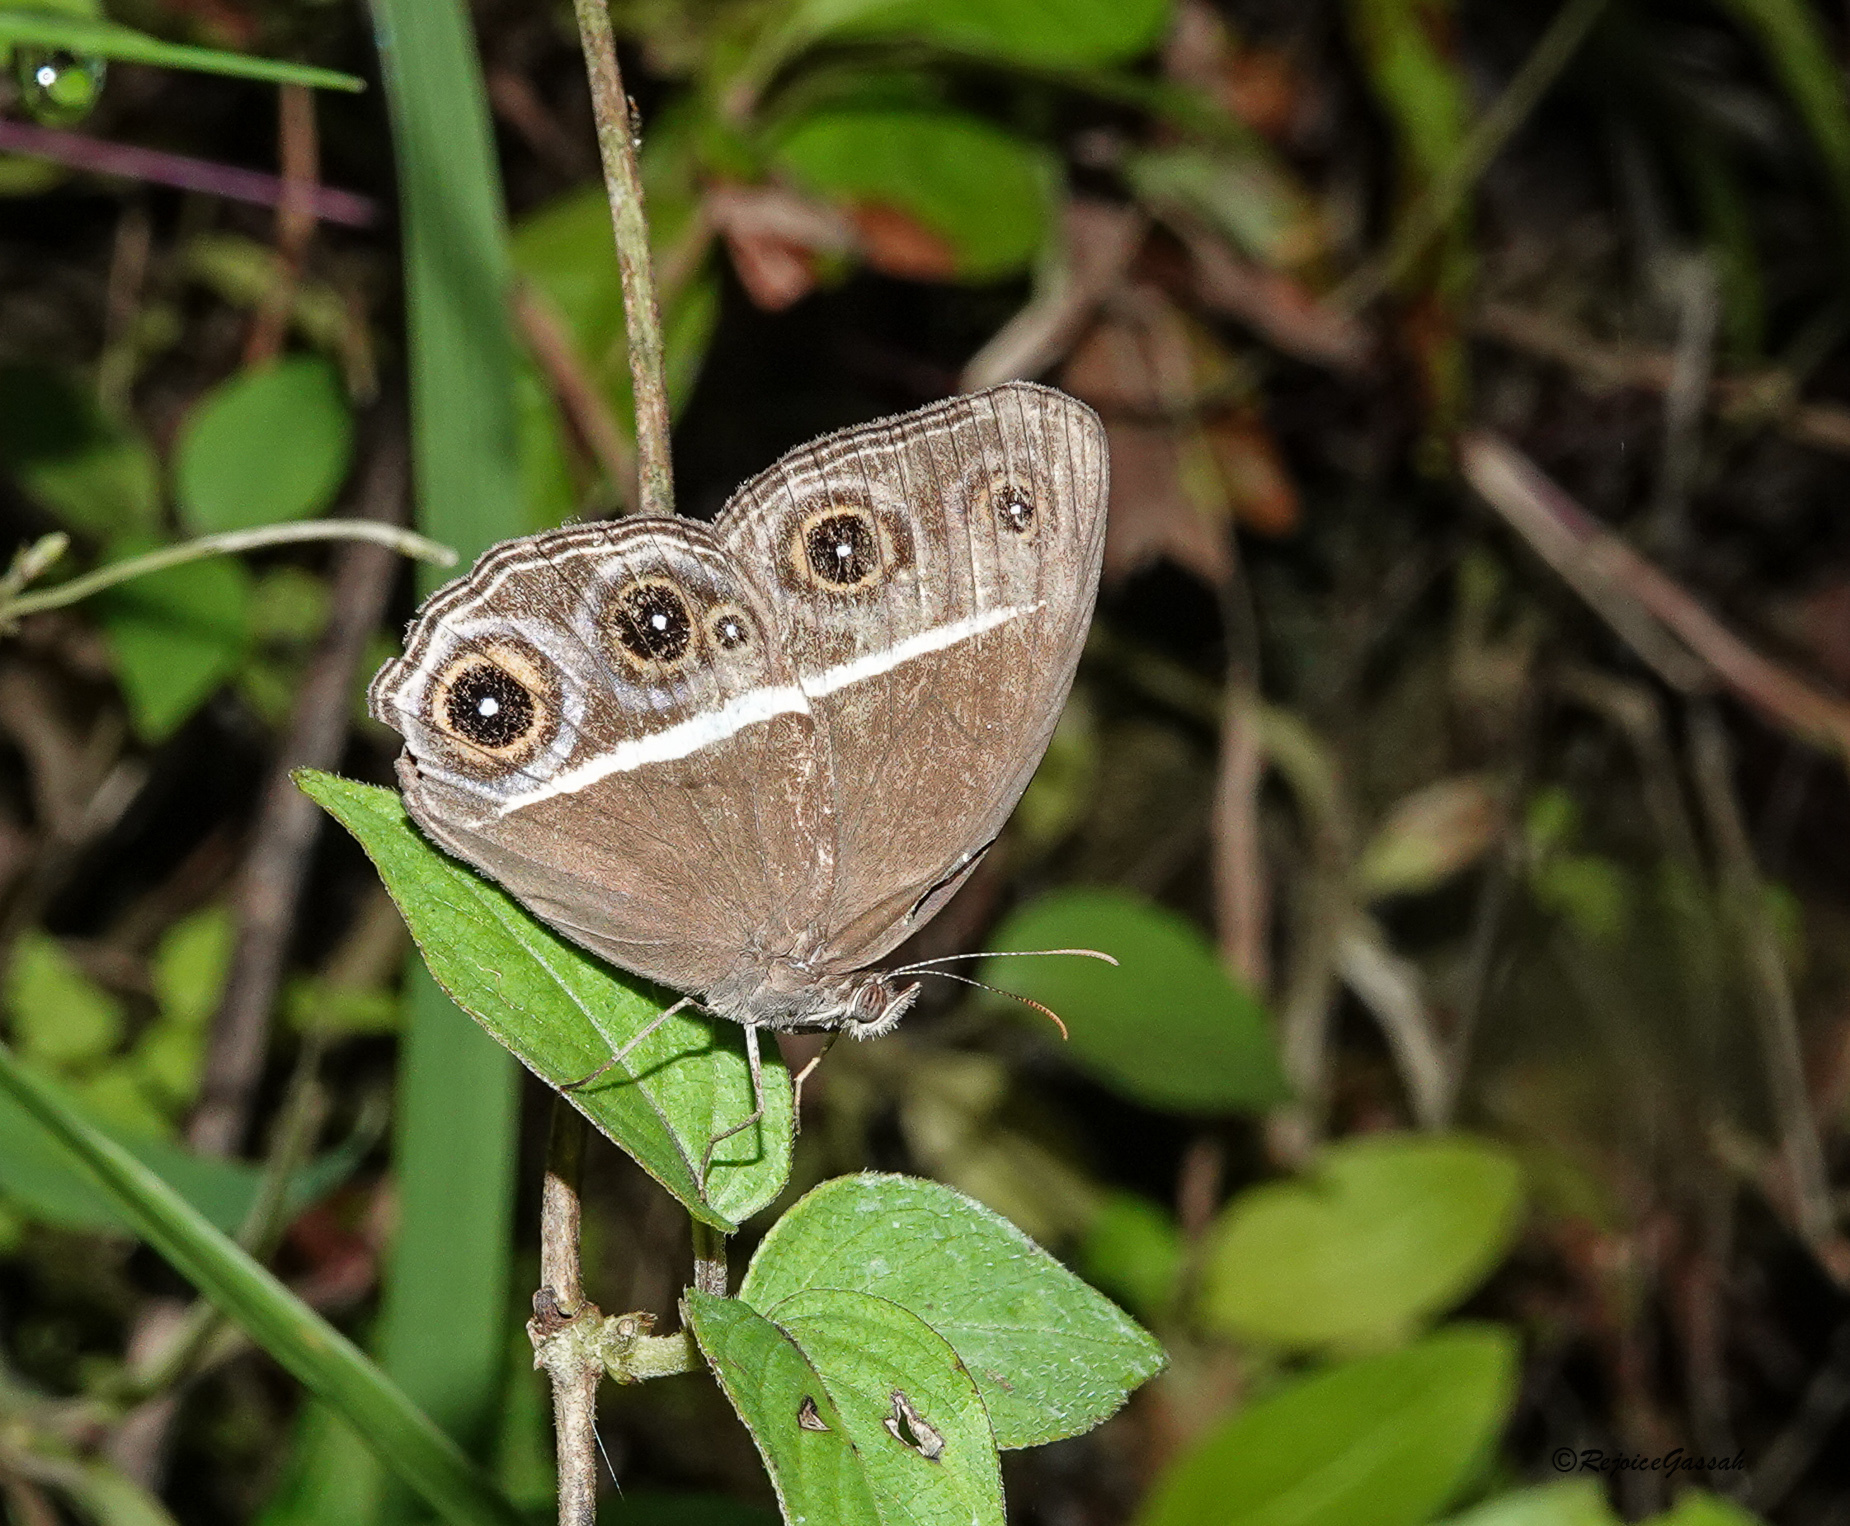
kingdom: Animalia
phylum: Arthropoda
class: Insecta
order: Lepidoptera
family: Nymphalidae
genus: Orsotriaena
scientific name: Orsotriaena medus
